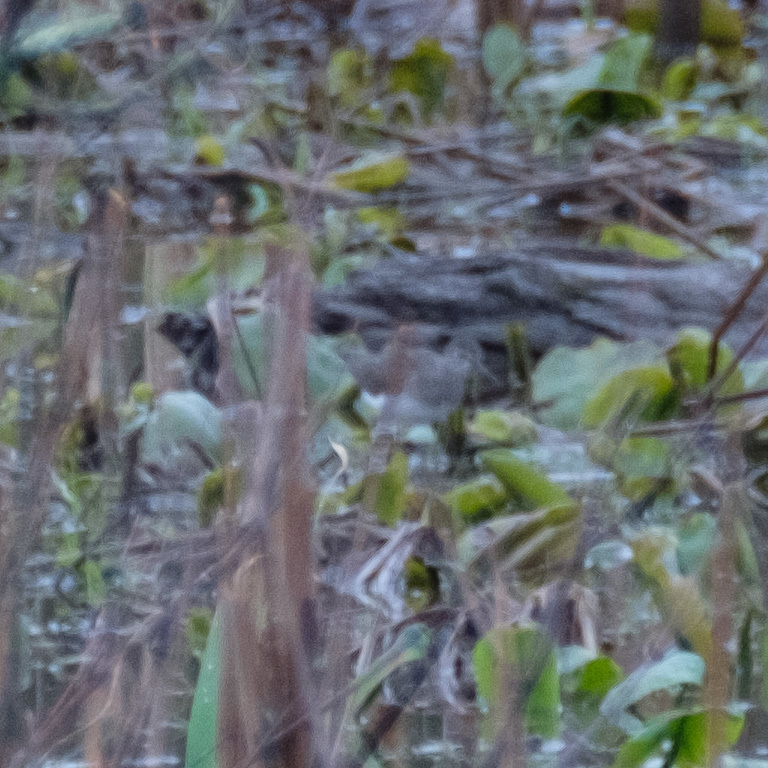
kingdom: Animalia
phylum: Chordata
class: Aves
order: Charadriiformes
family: Scolopacidae
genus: Tringa
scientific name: Tringa solitaria
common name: Solitary sandpiper
